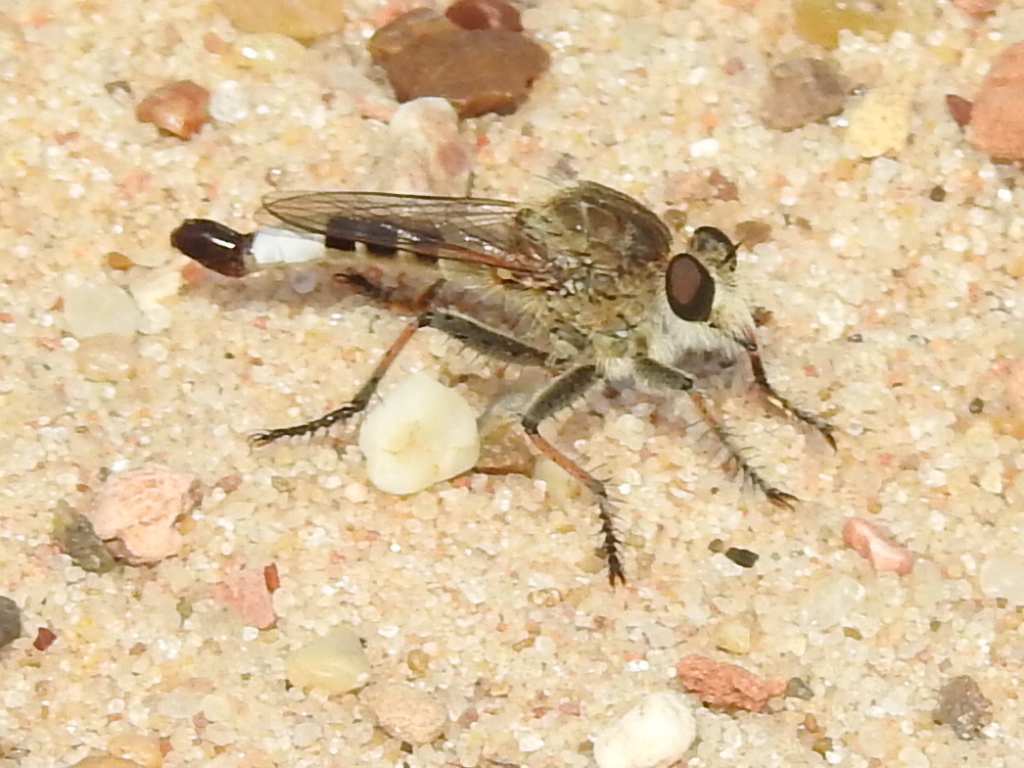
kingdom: Animalia
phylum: Arthropoda
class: Insecta
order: Diptera
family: Asilidae
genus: Efferia
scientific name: Efferia albibarbis
